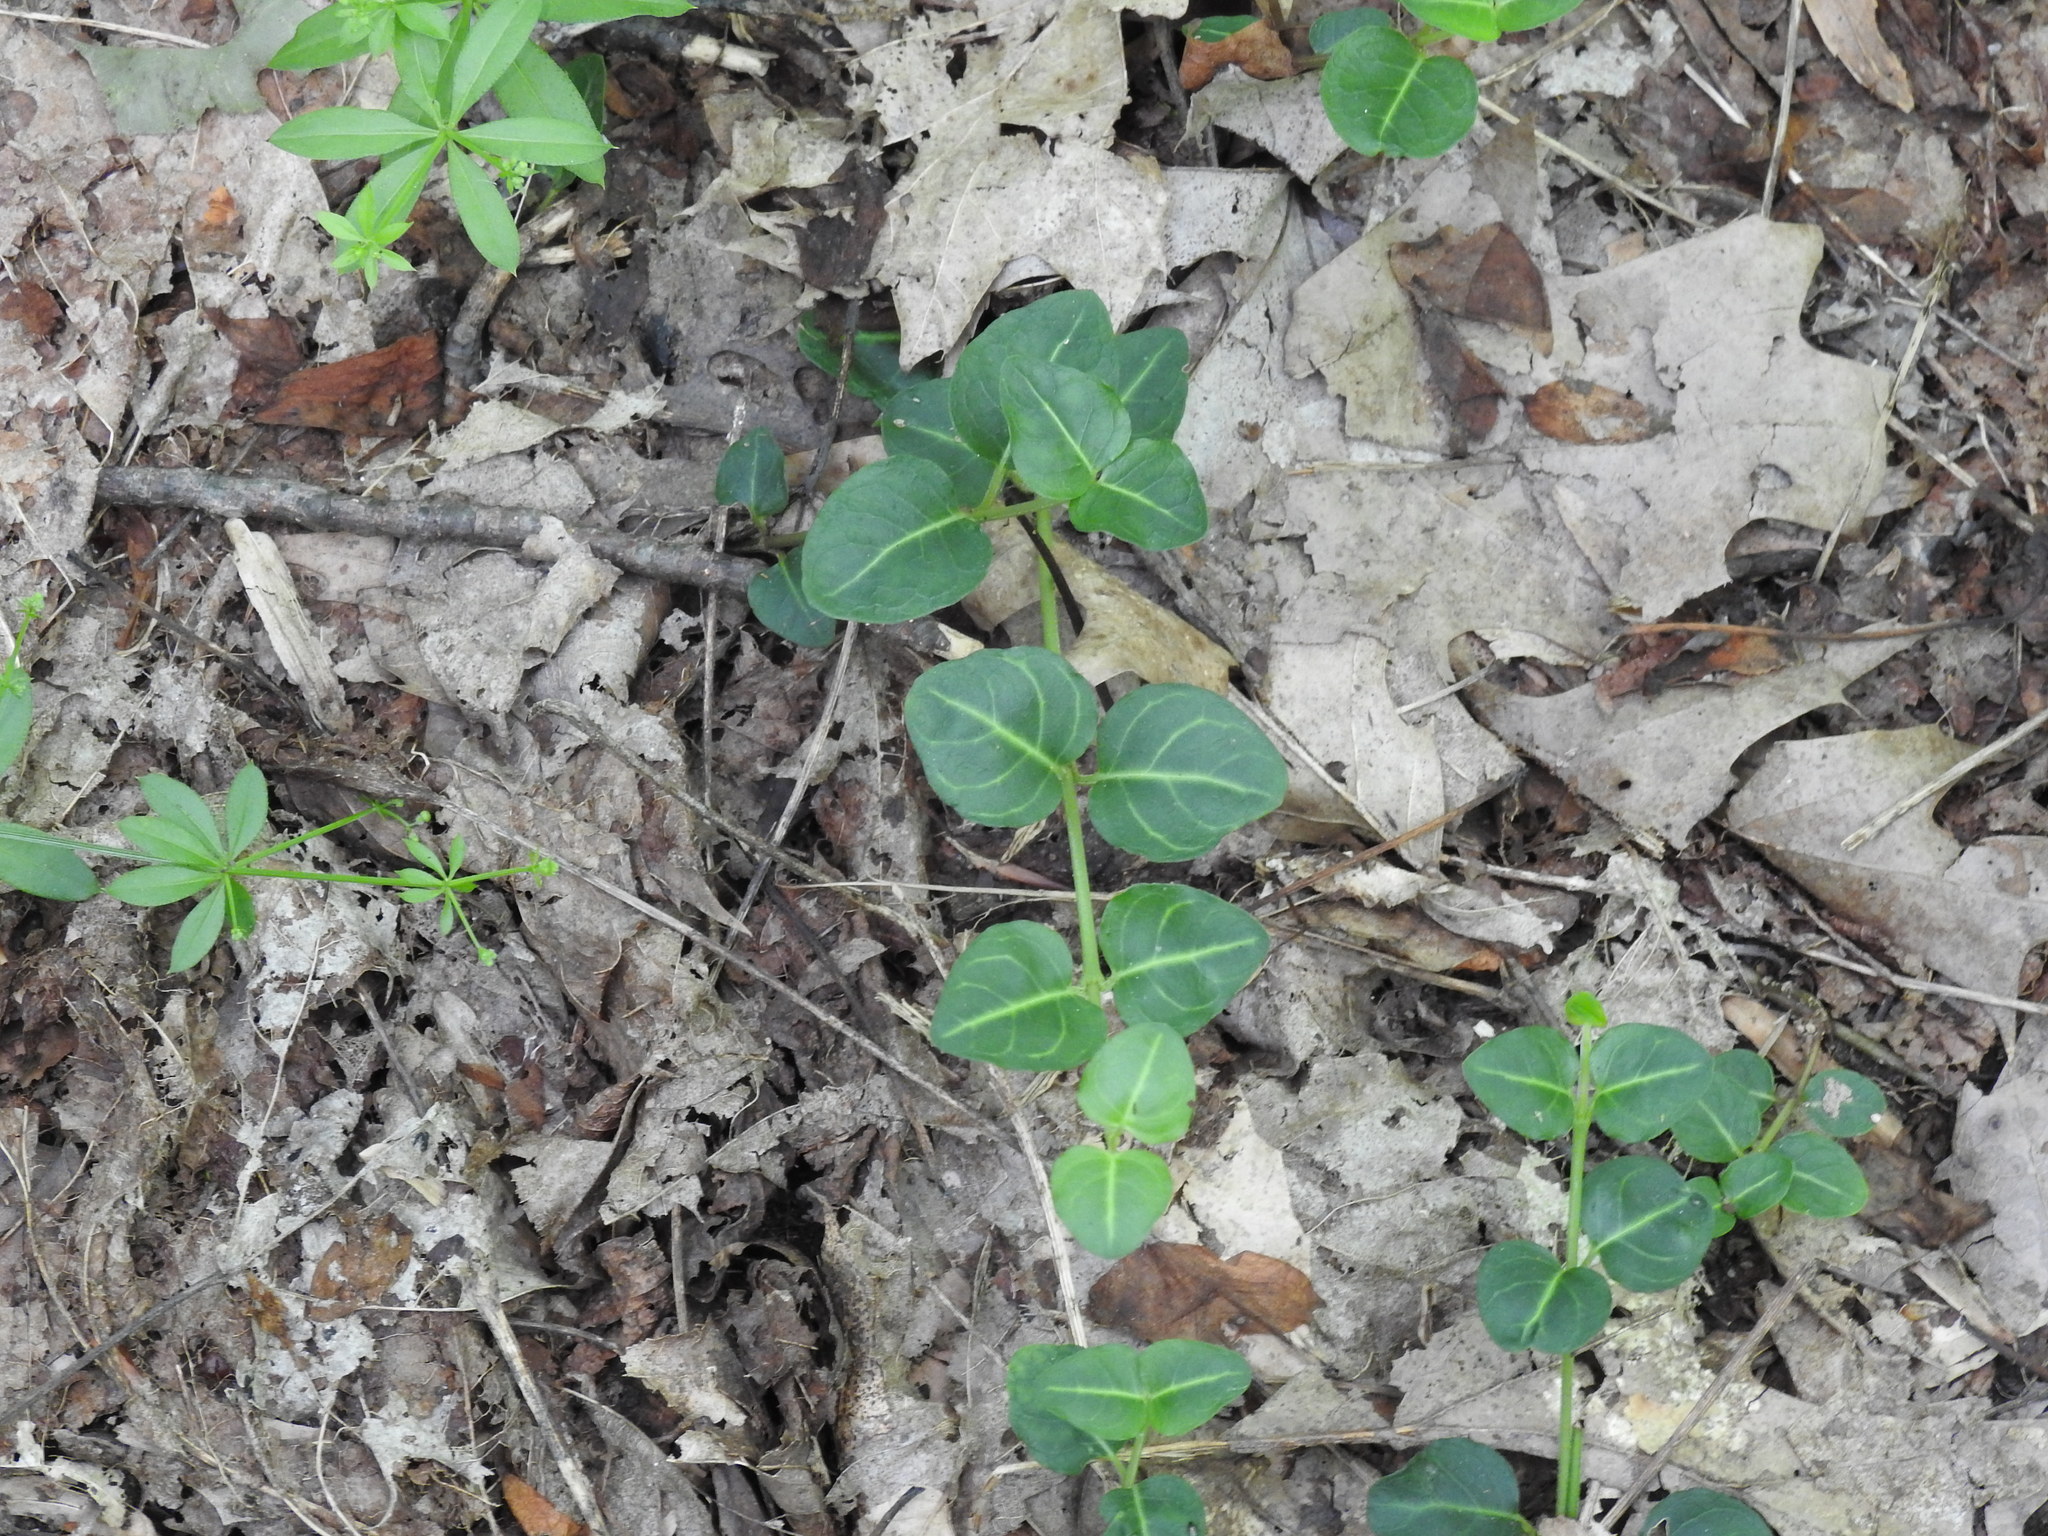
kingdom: Plantae
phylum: Tracheophyta
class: Magnoliopsida
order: Gentianales
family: Rubiaceae
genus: Mitchella
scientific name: Mitchella repens
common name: Partridge-berry
